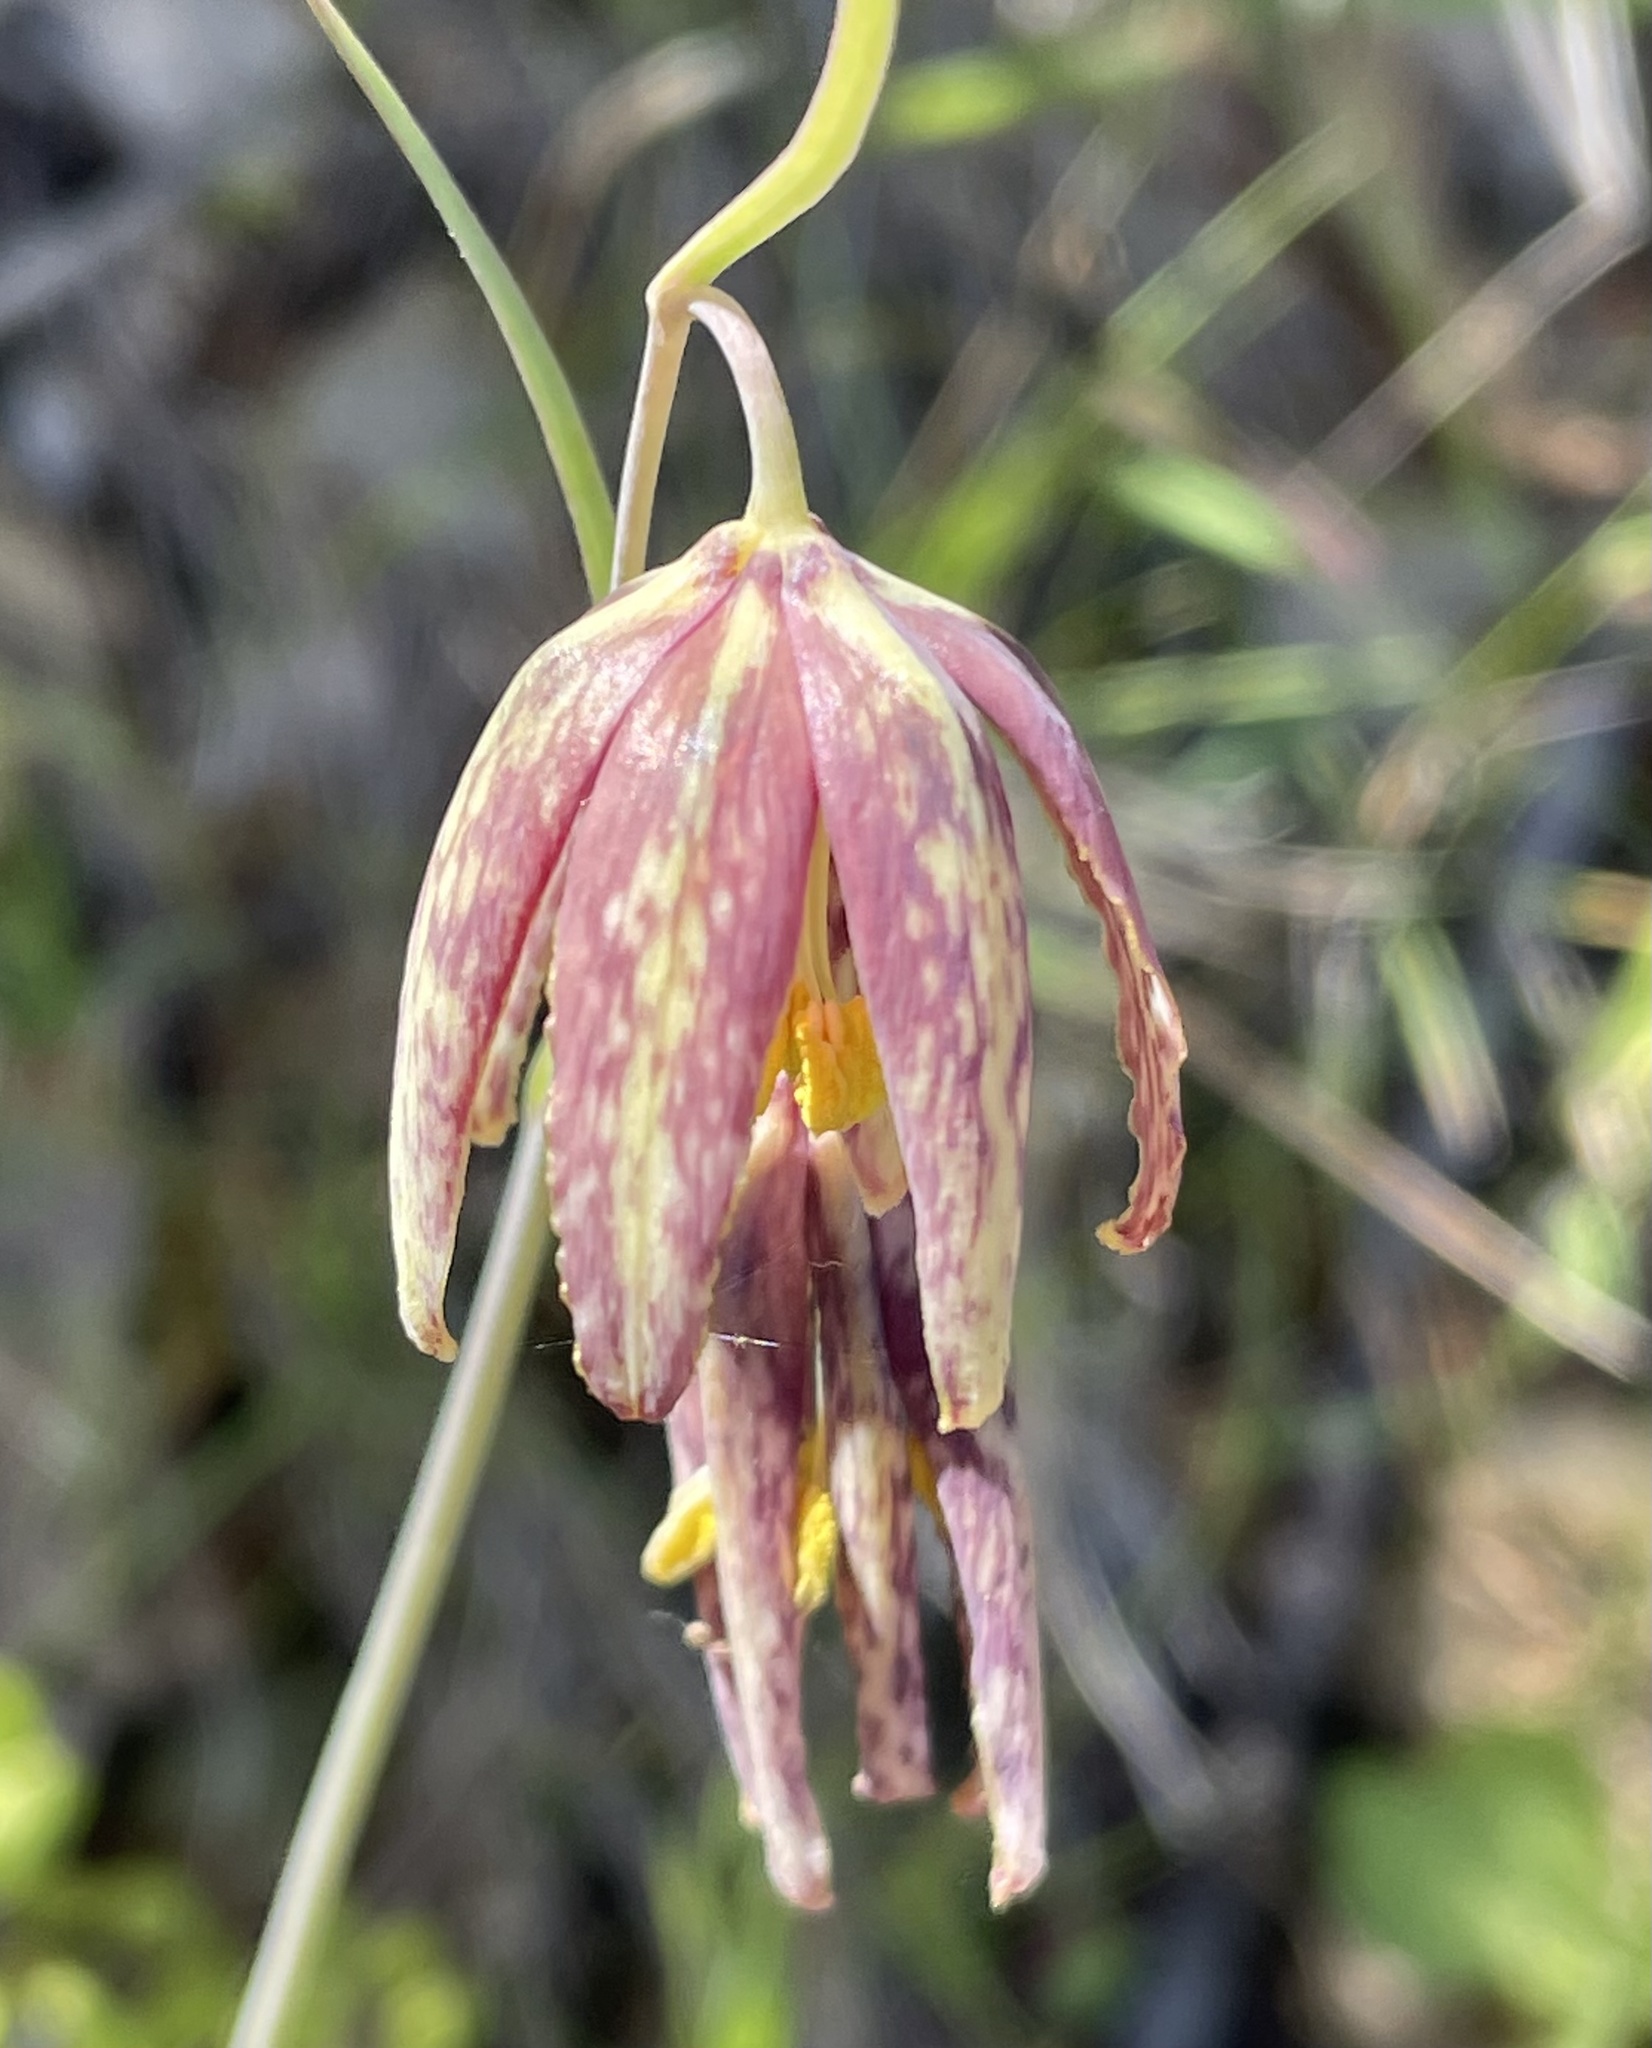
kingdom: Plantae
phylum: Tracheophyta
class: Liliopsida
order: Liliales
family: Liliaceae
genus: Fritillaria
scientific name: Fritillaria affinis
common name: Ojai fritillary
